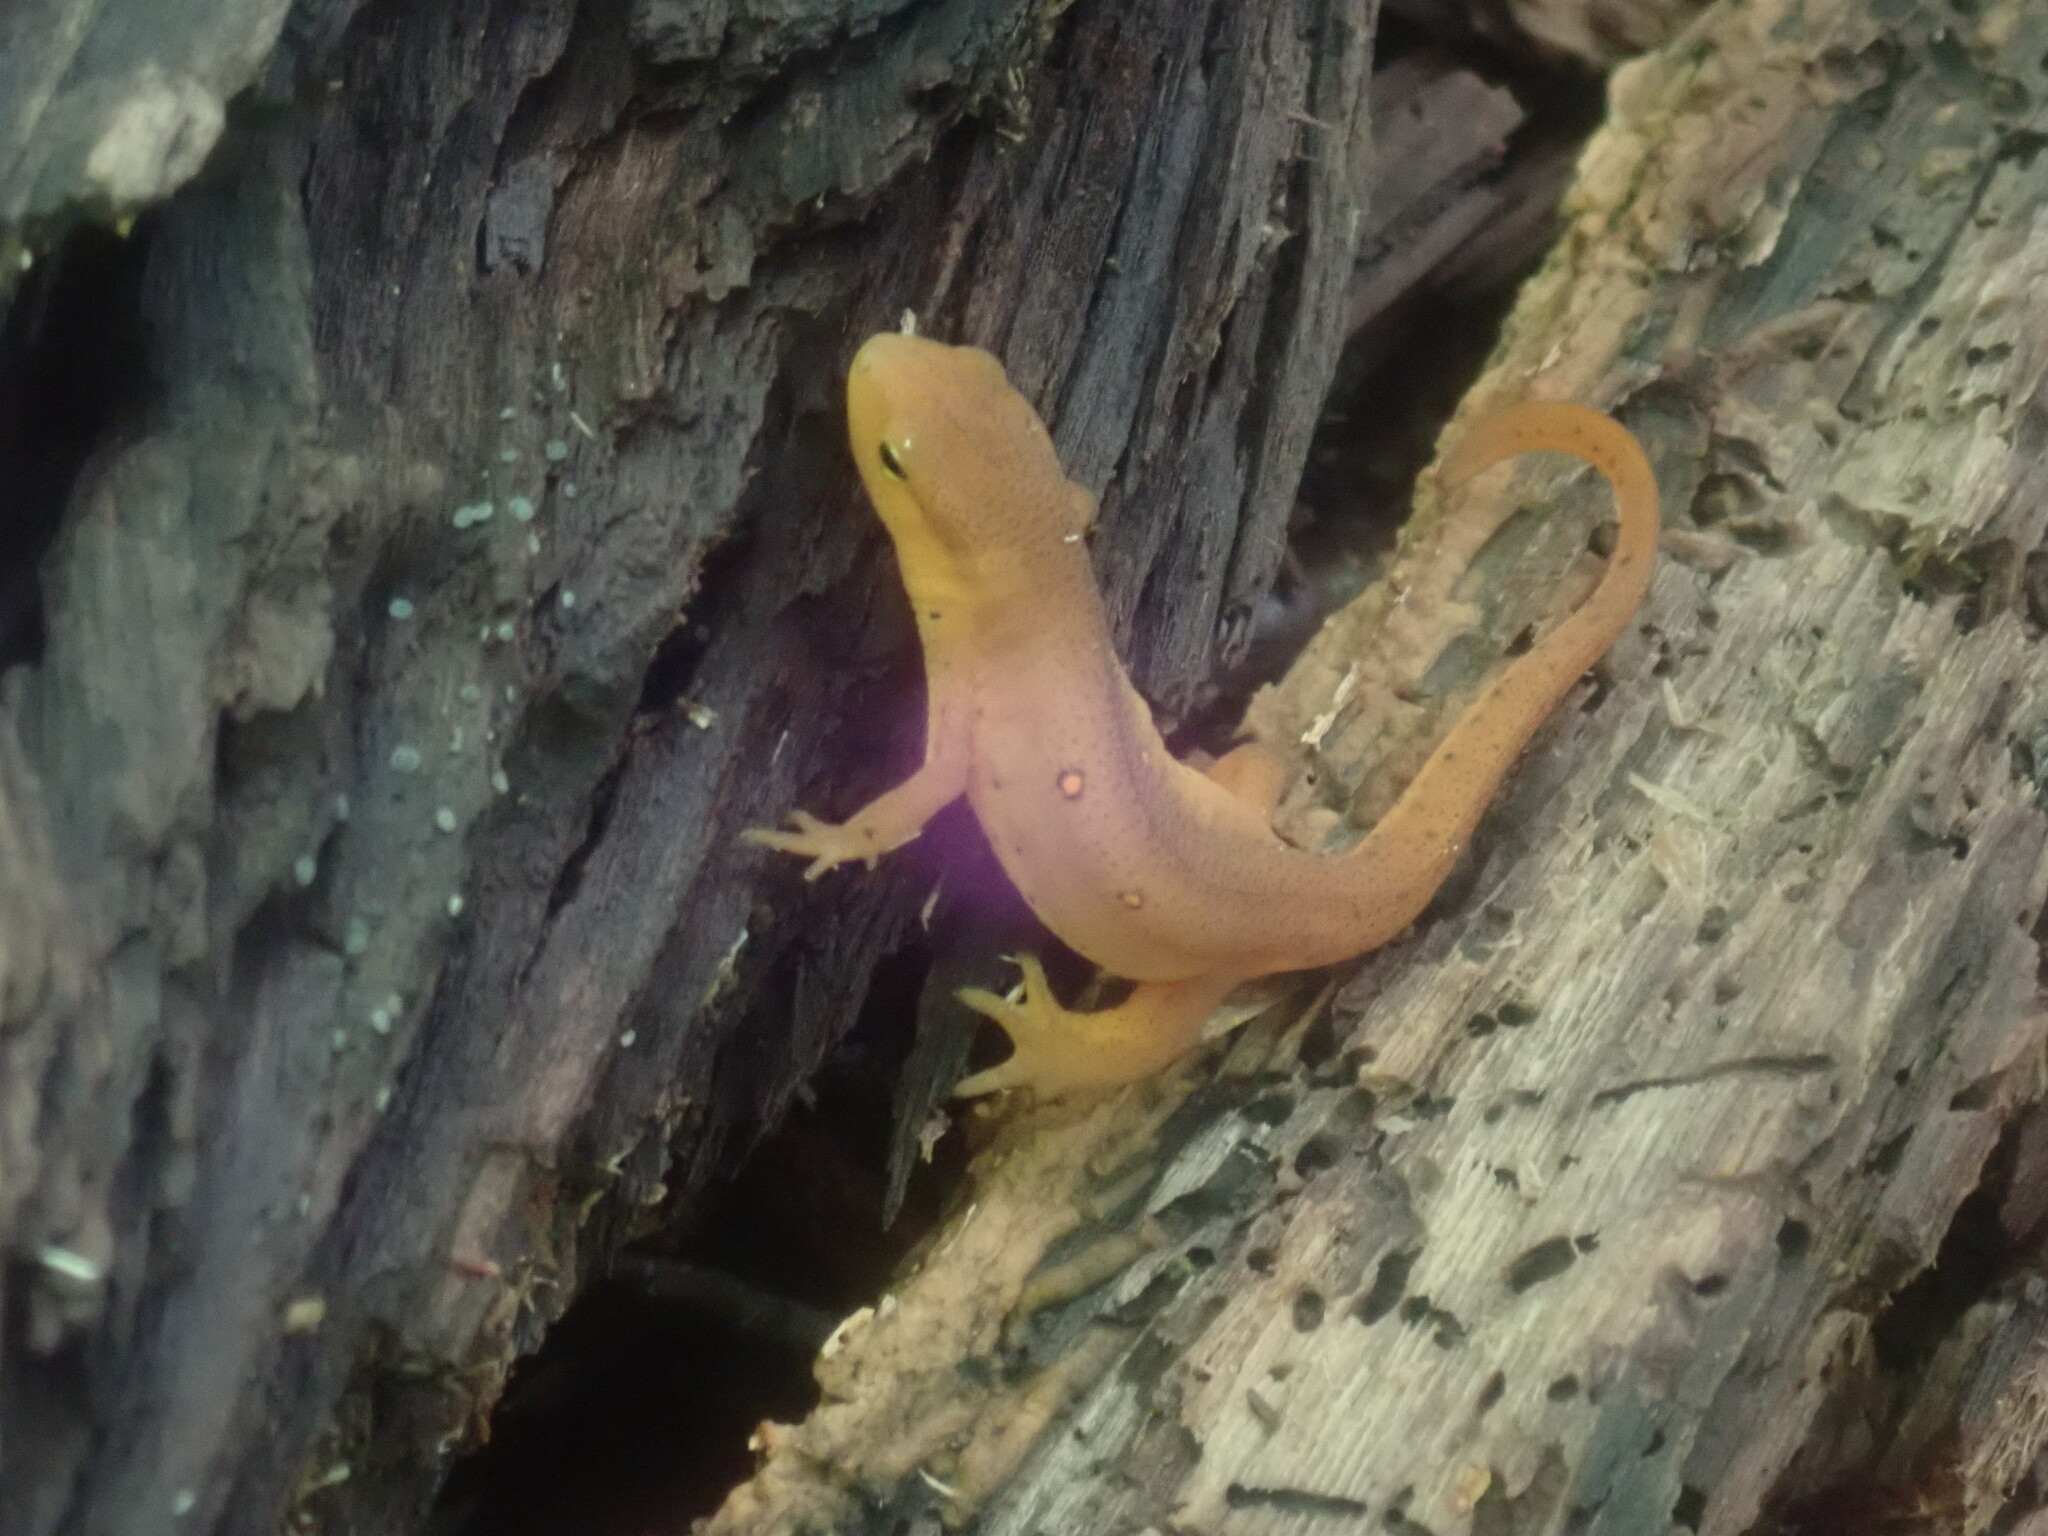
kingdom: Animalia
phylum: Chordata
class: Amphibia
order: Caudata
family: Salamandridae
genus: Notophthalmus
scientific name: Notophthalmus viridescens
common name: Eastern newt
